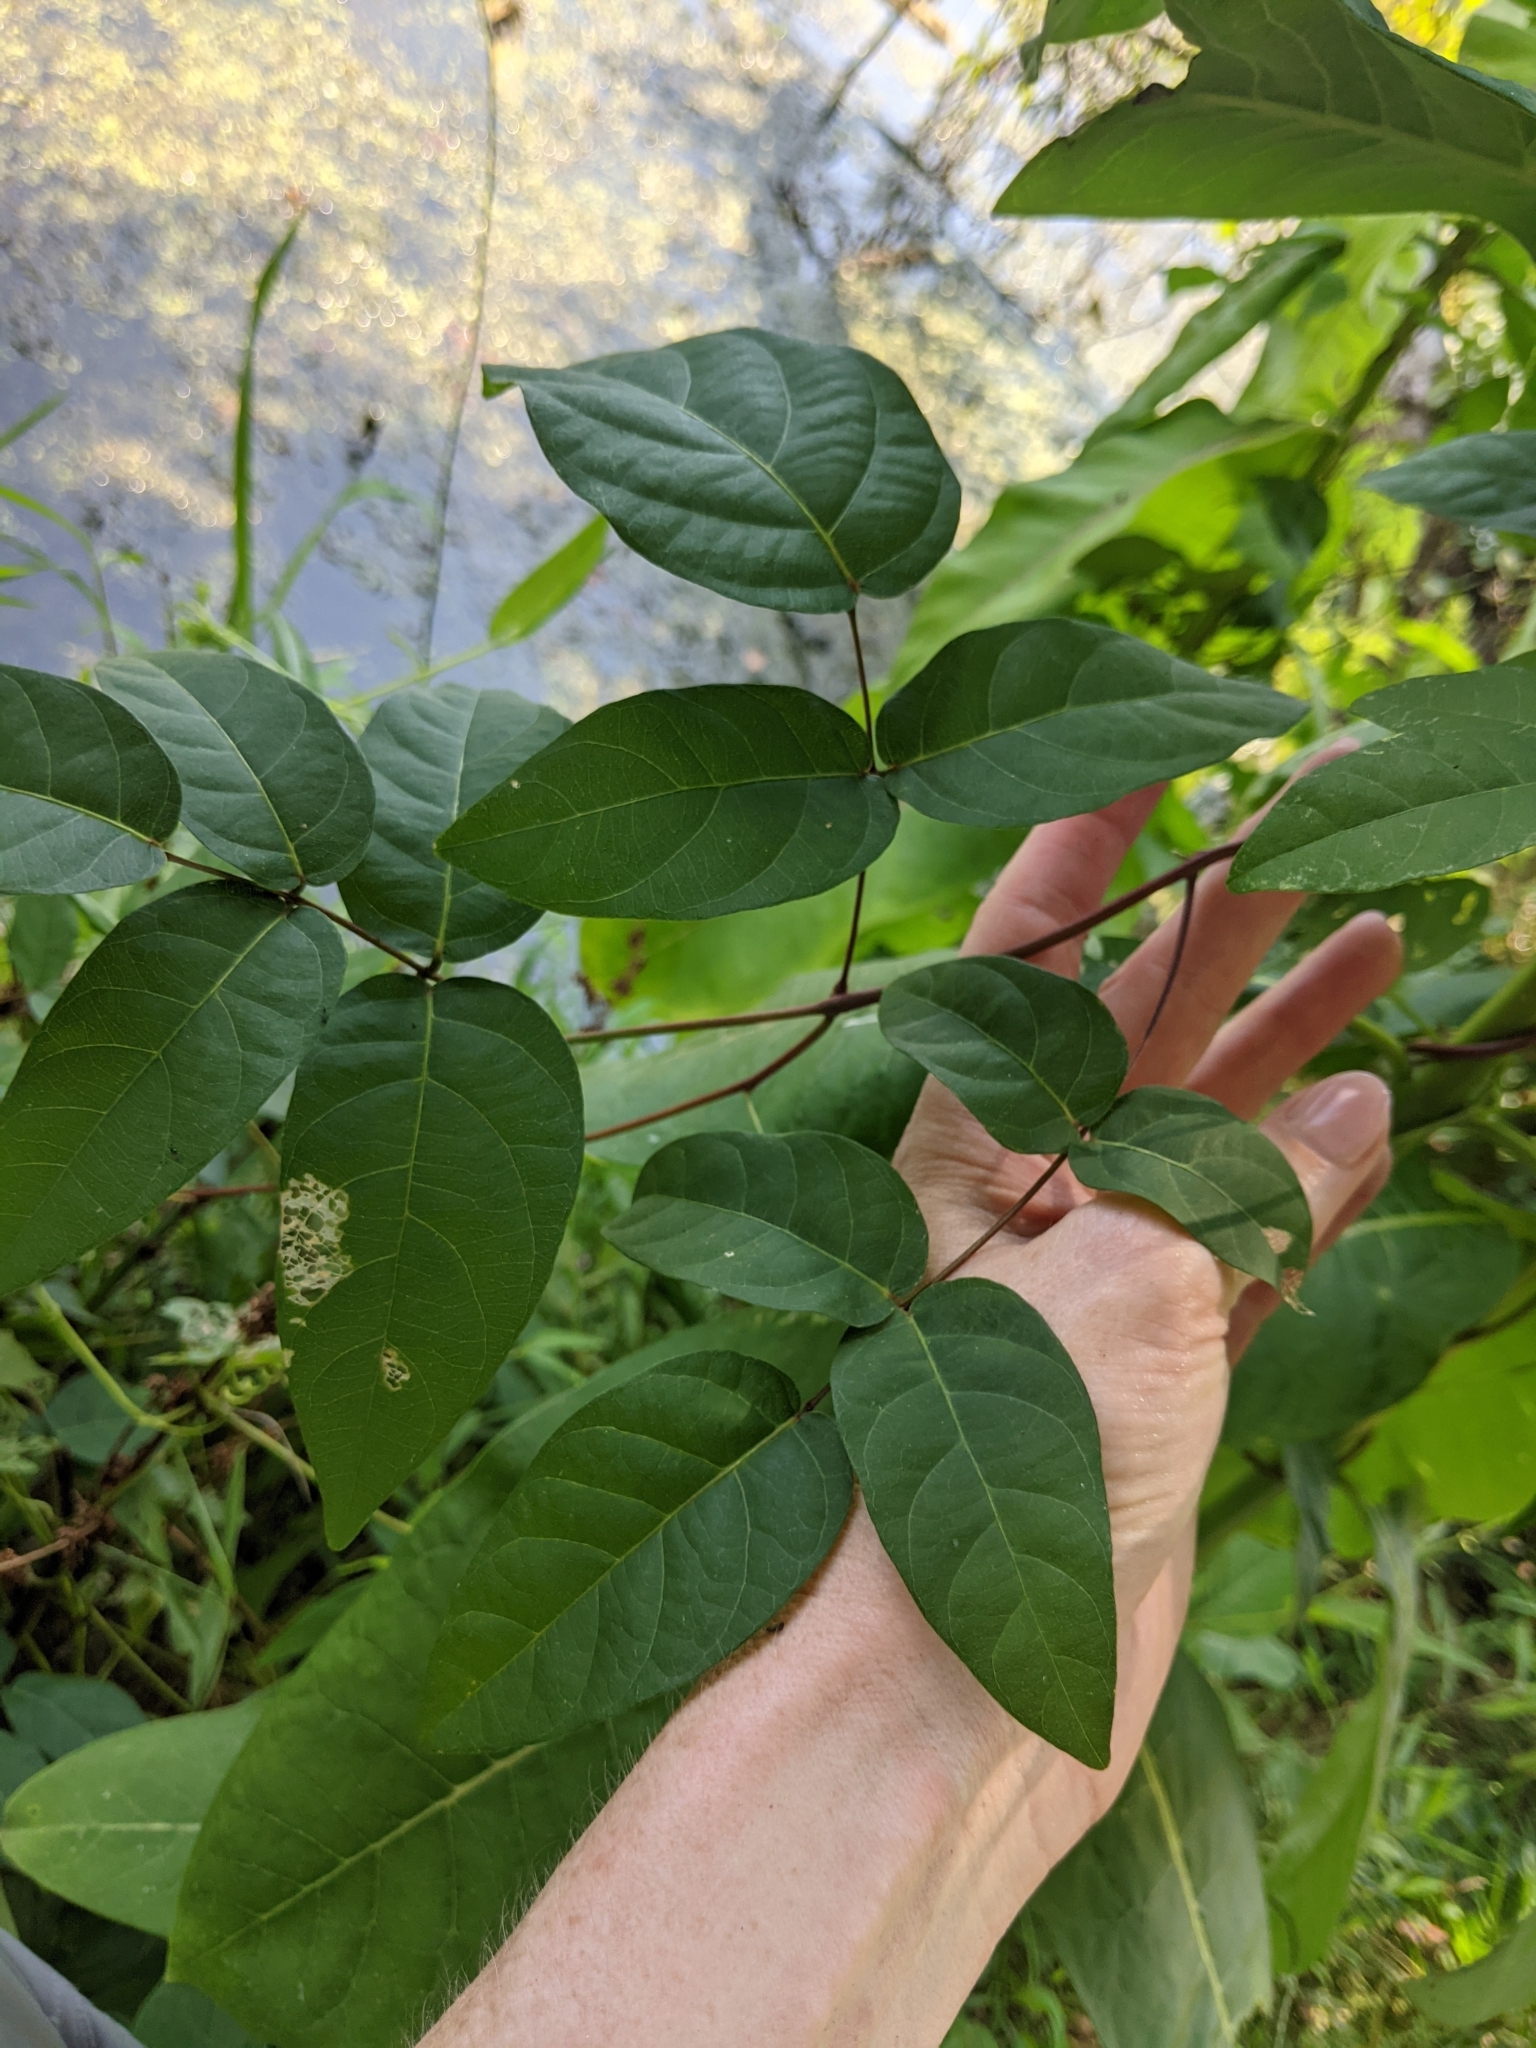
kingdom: Plantae
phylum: Tracheophyta
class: Magnoliopsida
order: Fabales
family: Fabaceae
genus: Apios
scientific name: Apios americana
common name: American potato-bean
